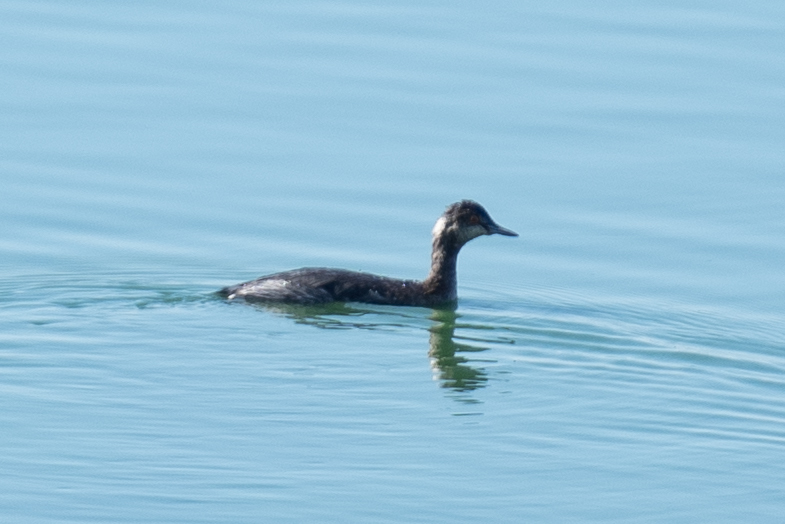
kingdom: Animalia
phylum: Chordata
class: Aves
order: Podicipediformes
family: Podicipedidae
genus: Podiceps
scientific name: Podiceps nigricollis
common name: Black-necked grebe
